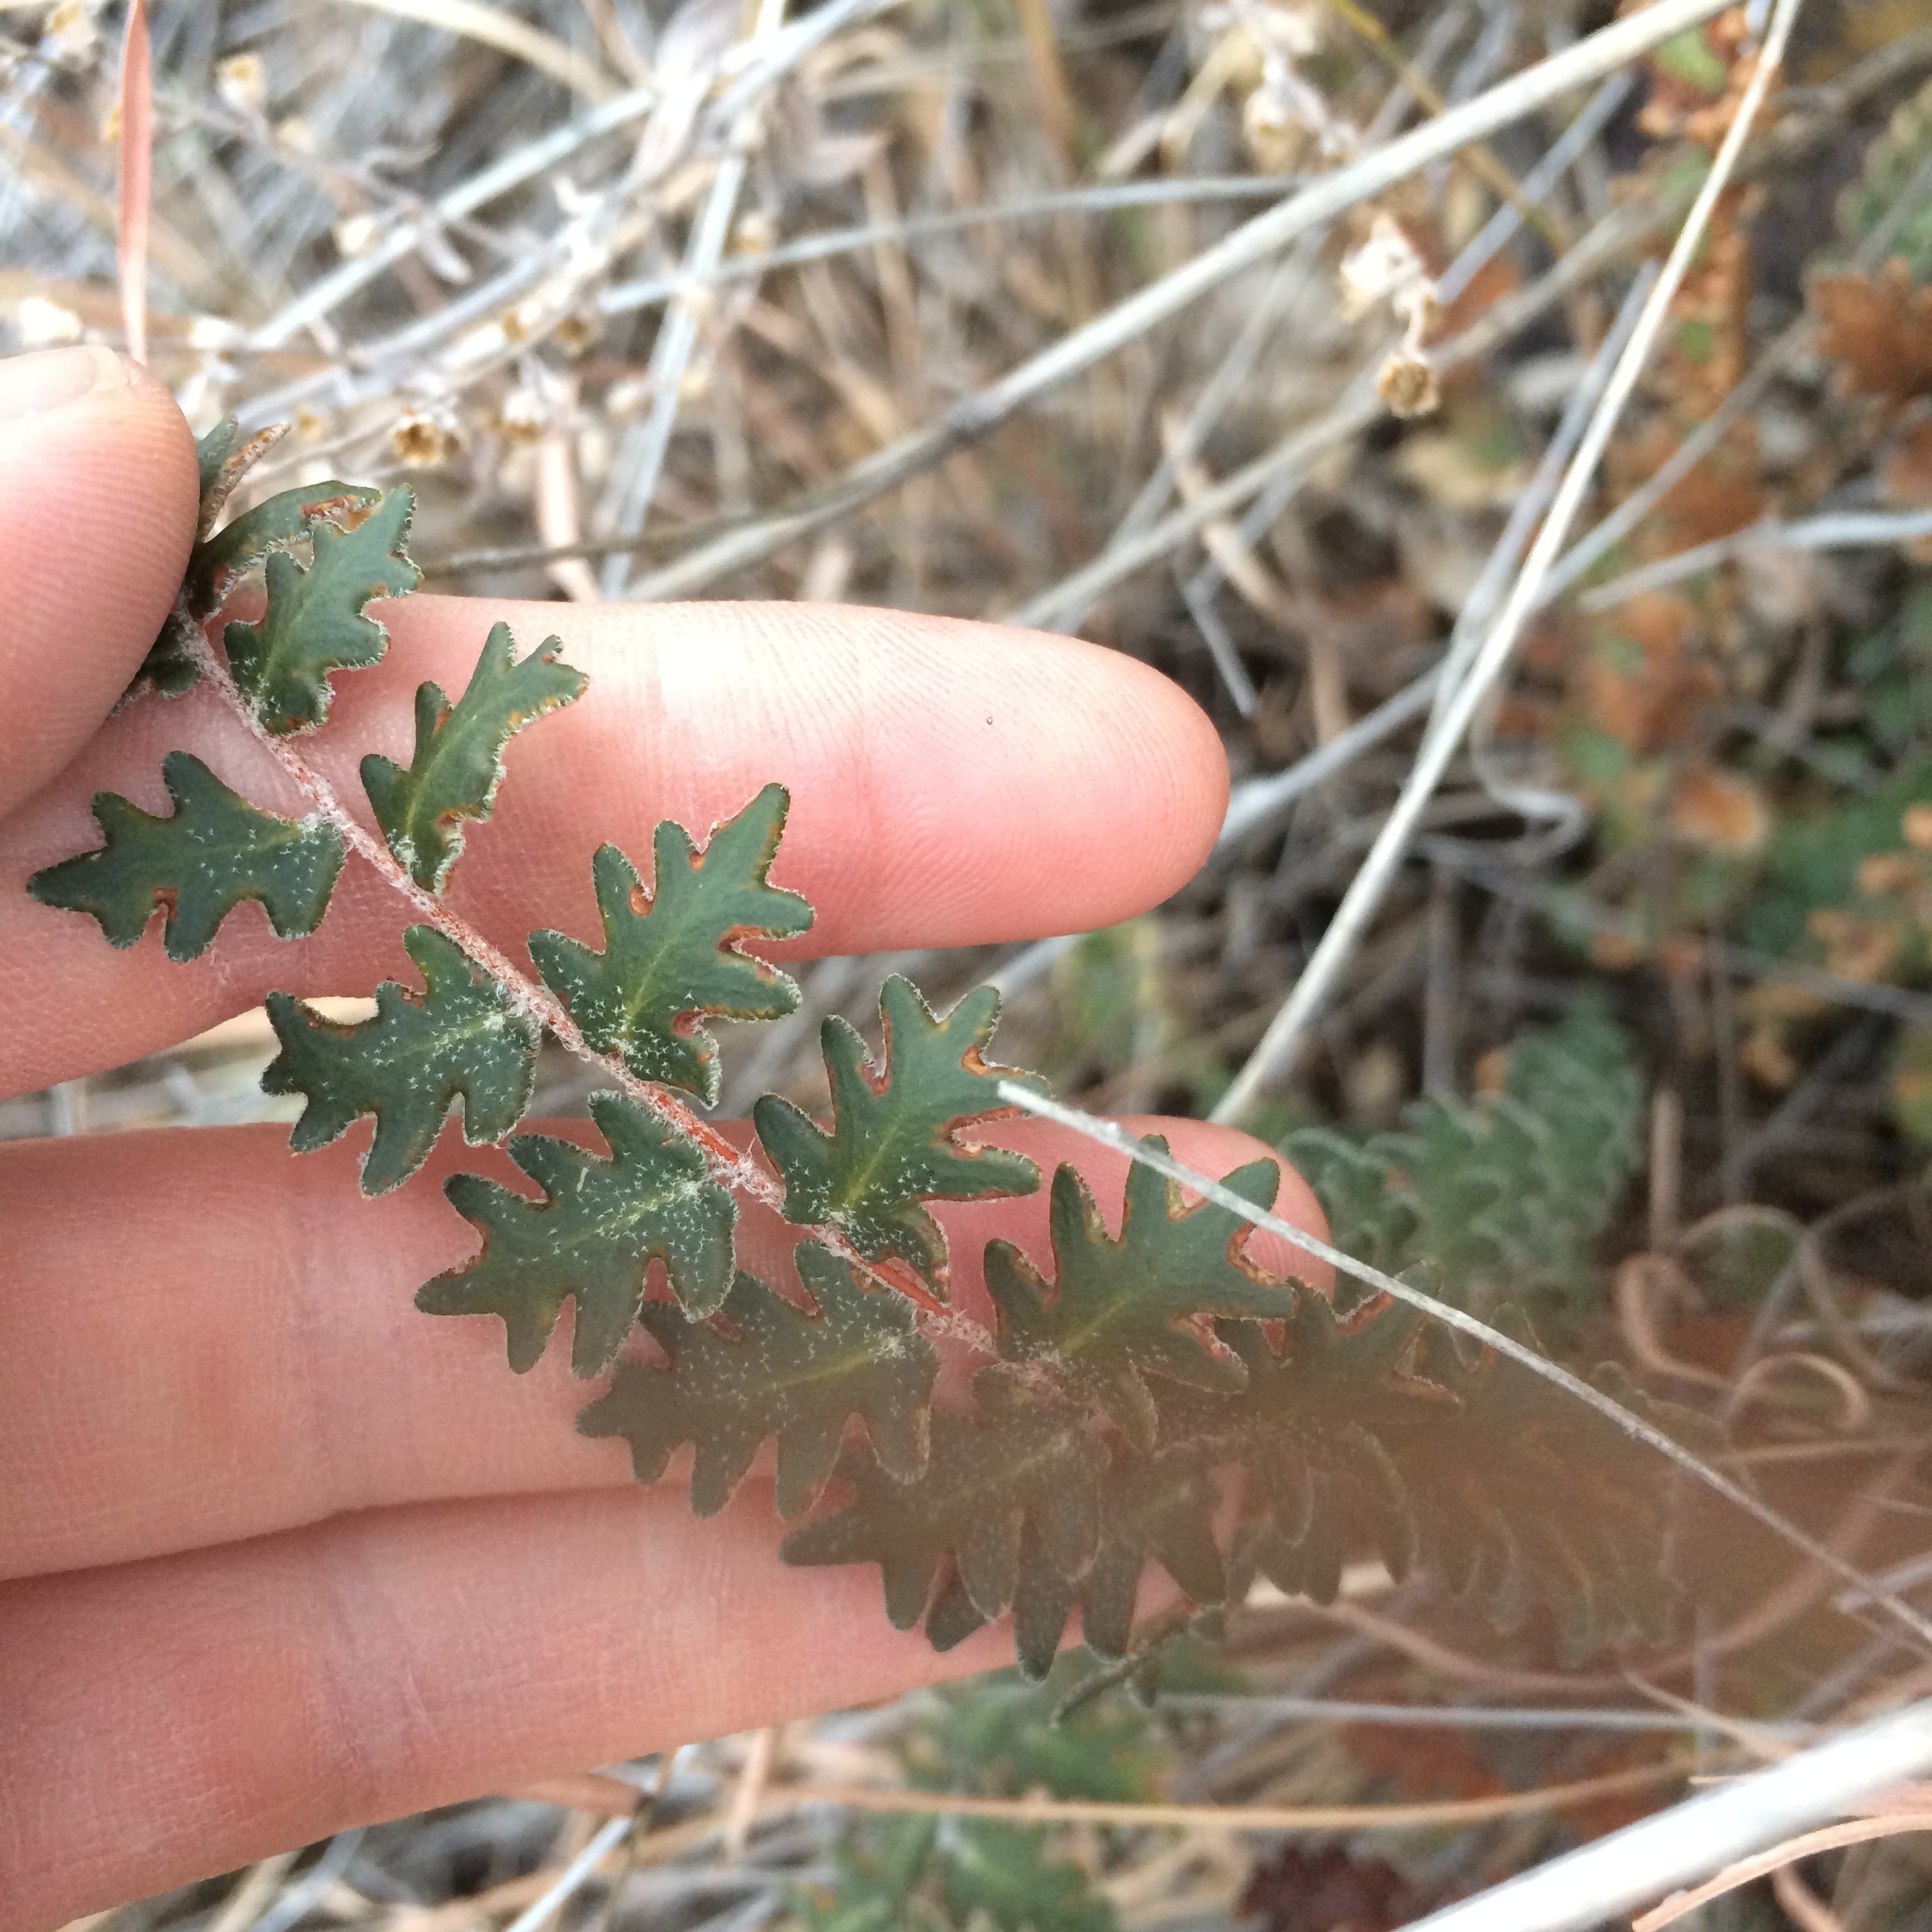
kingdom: Plantae
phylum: Tracheophyta
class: Polypodiopsida
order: Polypodiales
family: Pteridaceae
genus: Astrolepis
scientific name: Astrolepis sinuata
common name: Wavy scaly cloakfern
